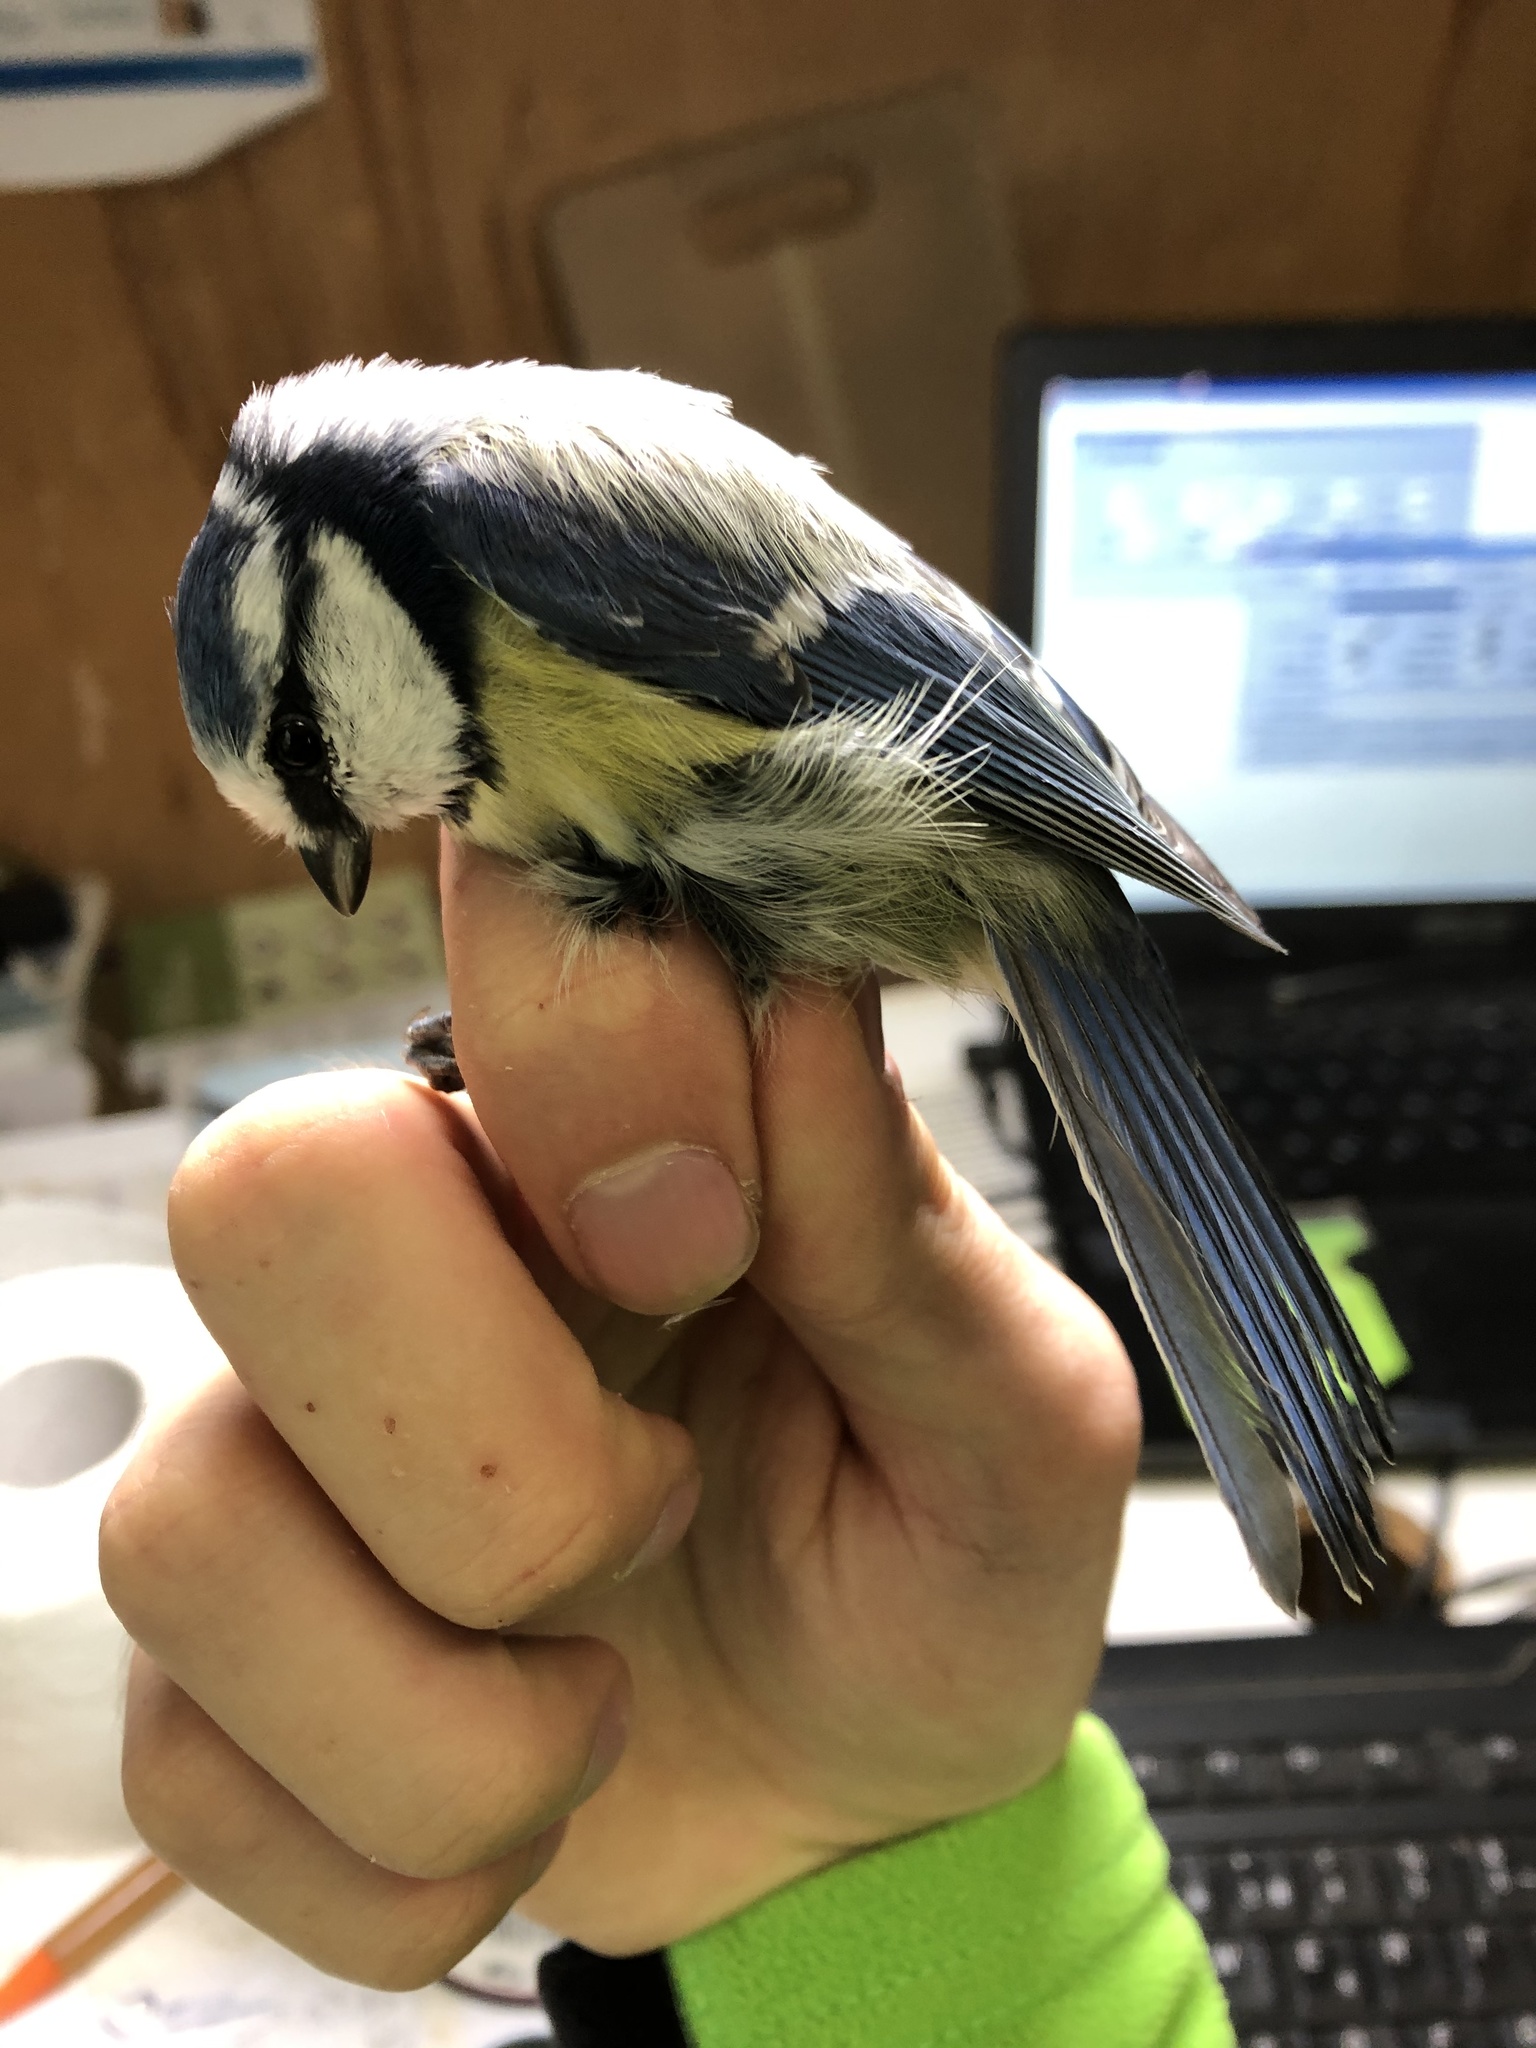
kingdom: Animalia
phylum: Chordata
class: Aves
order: Passeriformes
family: Paridae
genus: Cyanistes
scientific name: Cyanistes caeruleus
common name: Eurasian blue tit
